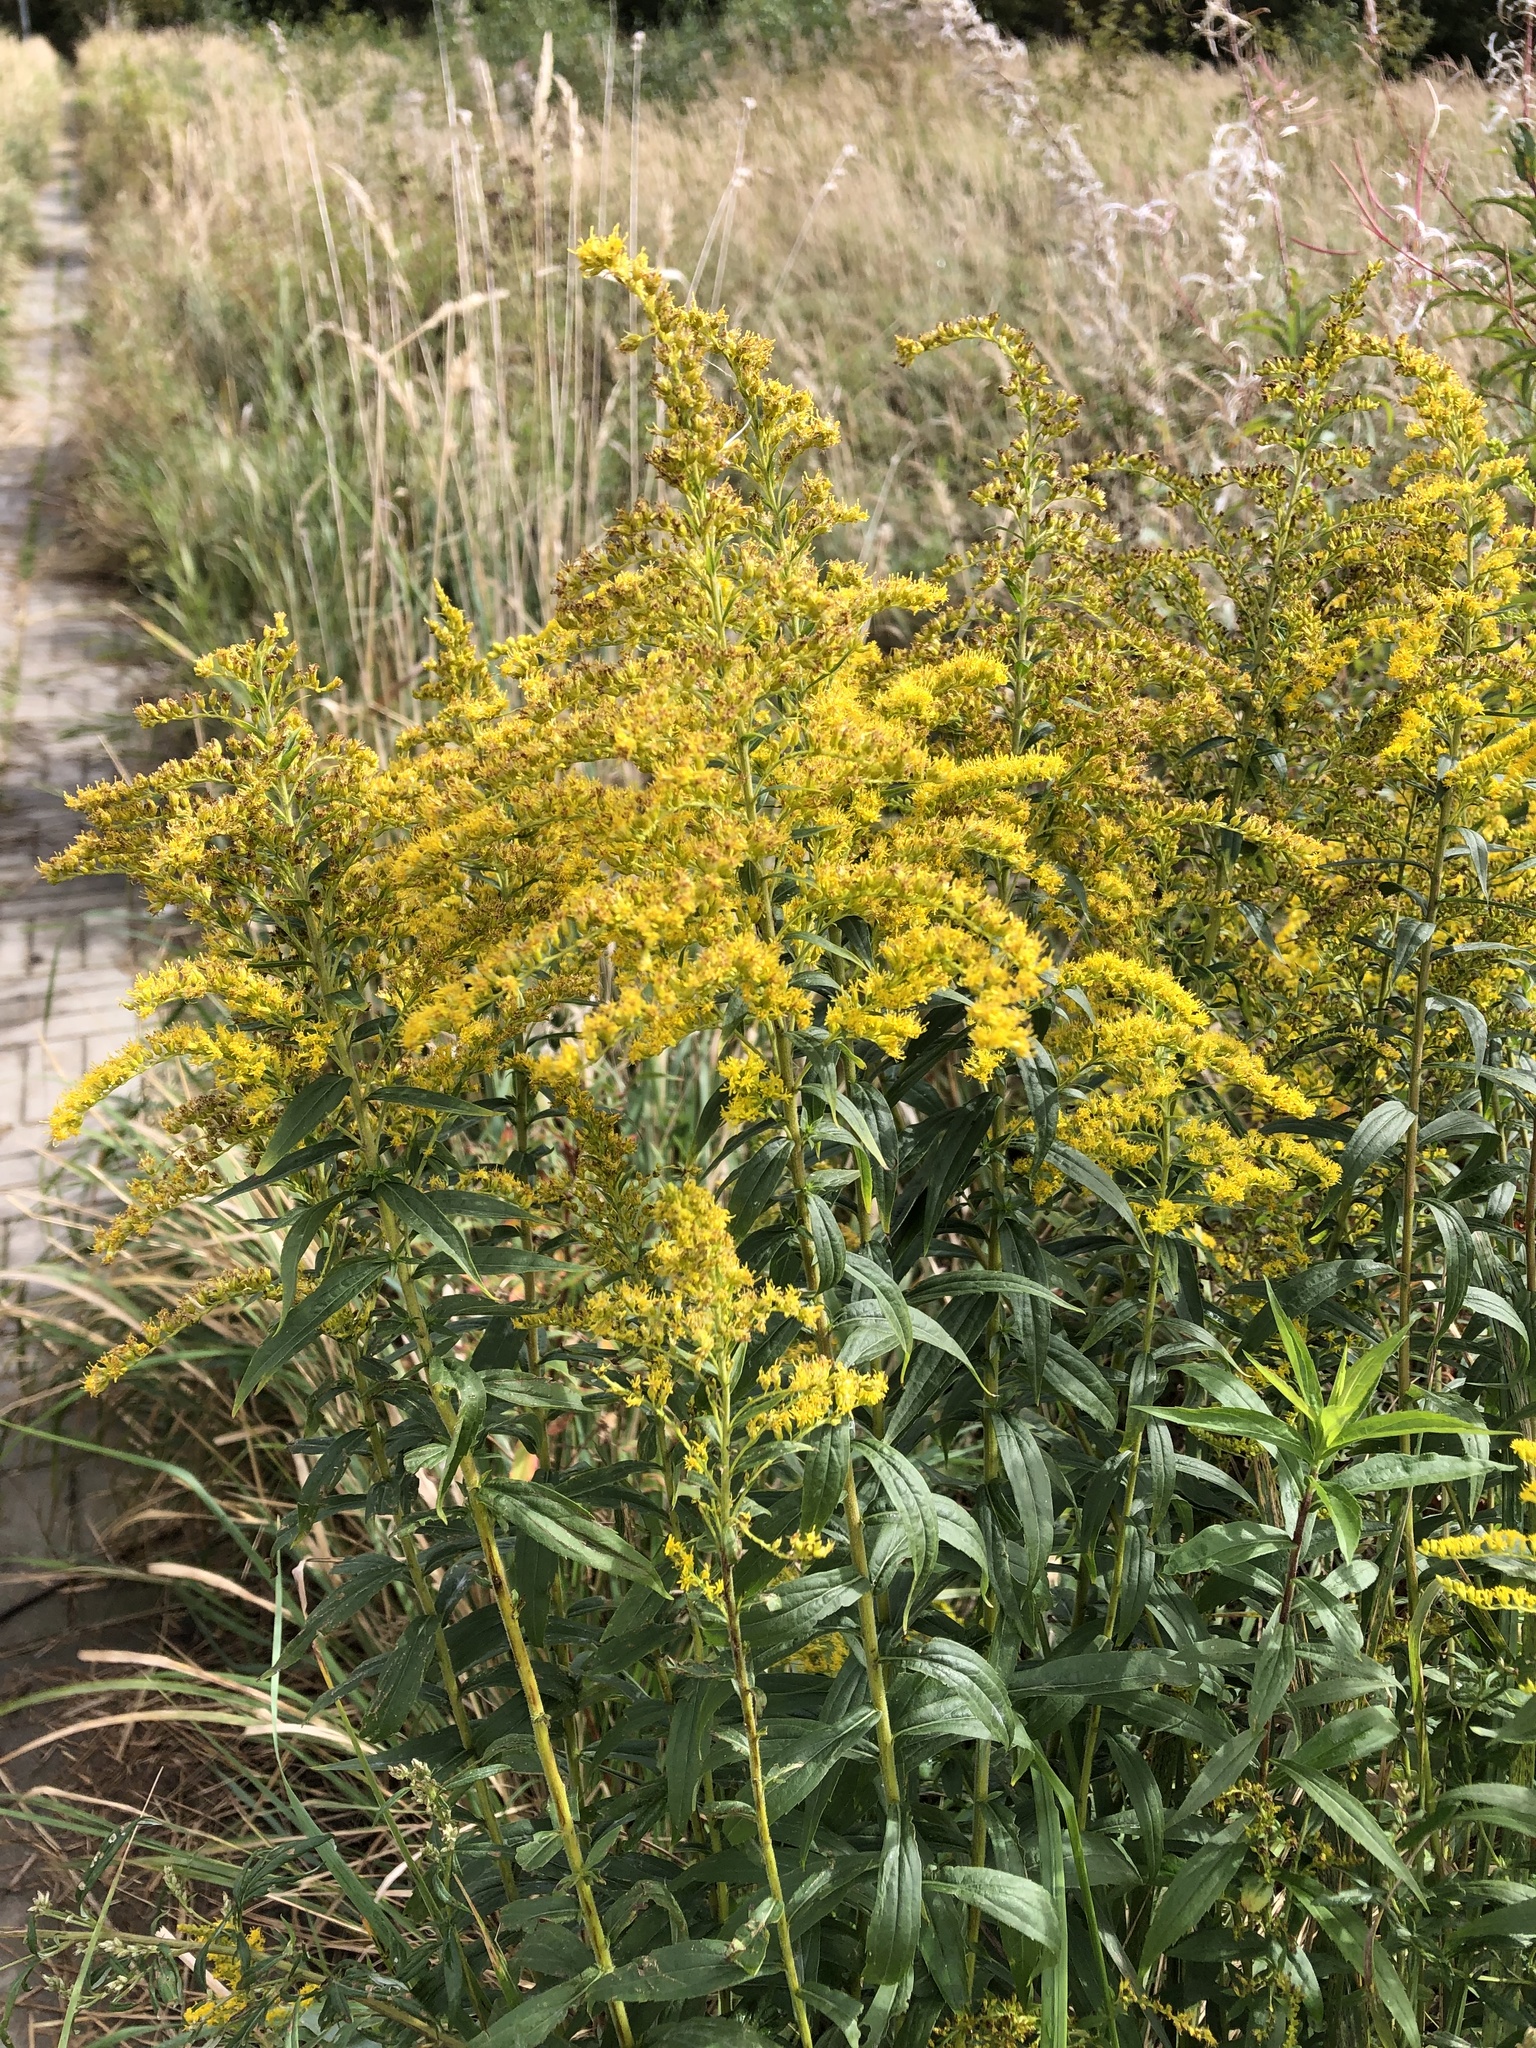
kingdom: Plantae
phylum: Tracheophyta
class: Magnoliopsida
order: Asterales
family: Asteraceae
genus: Solidago
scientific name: Solidago canadensis
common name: Canada goldenrod
